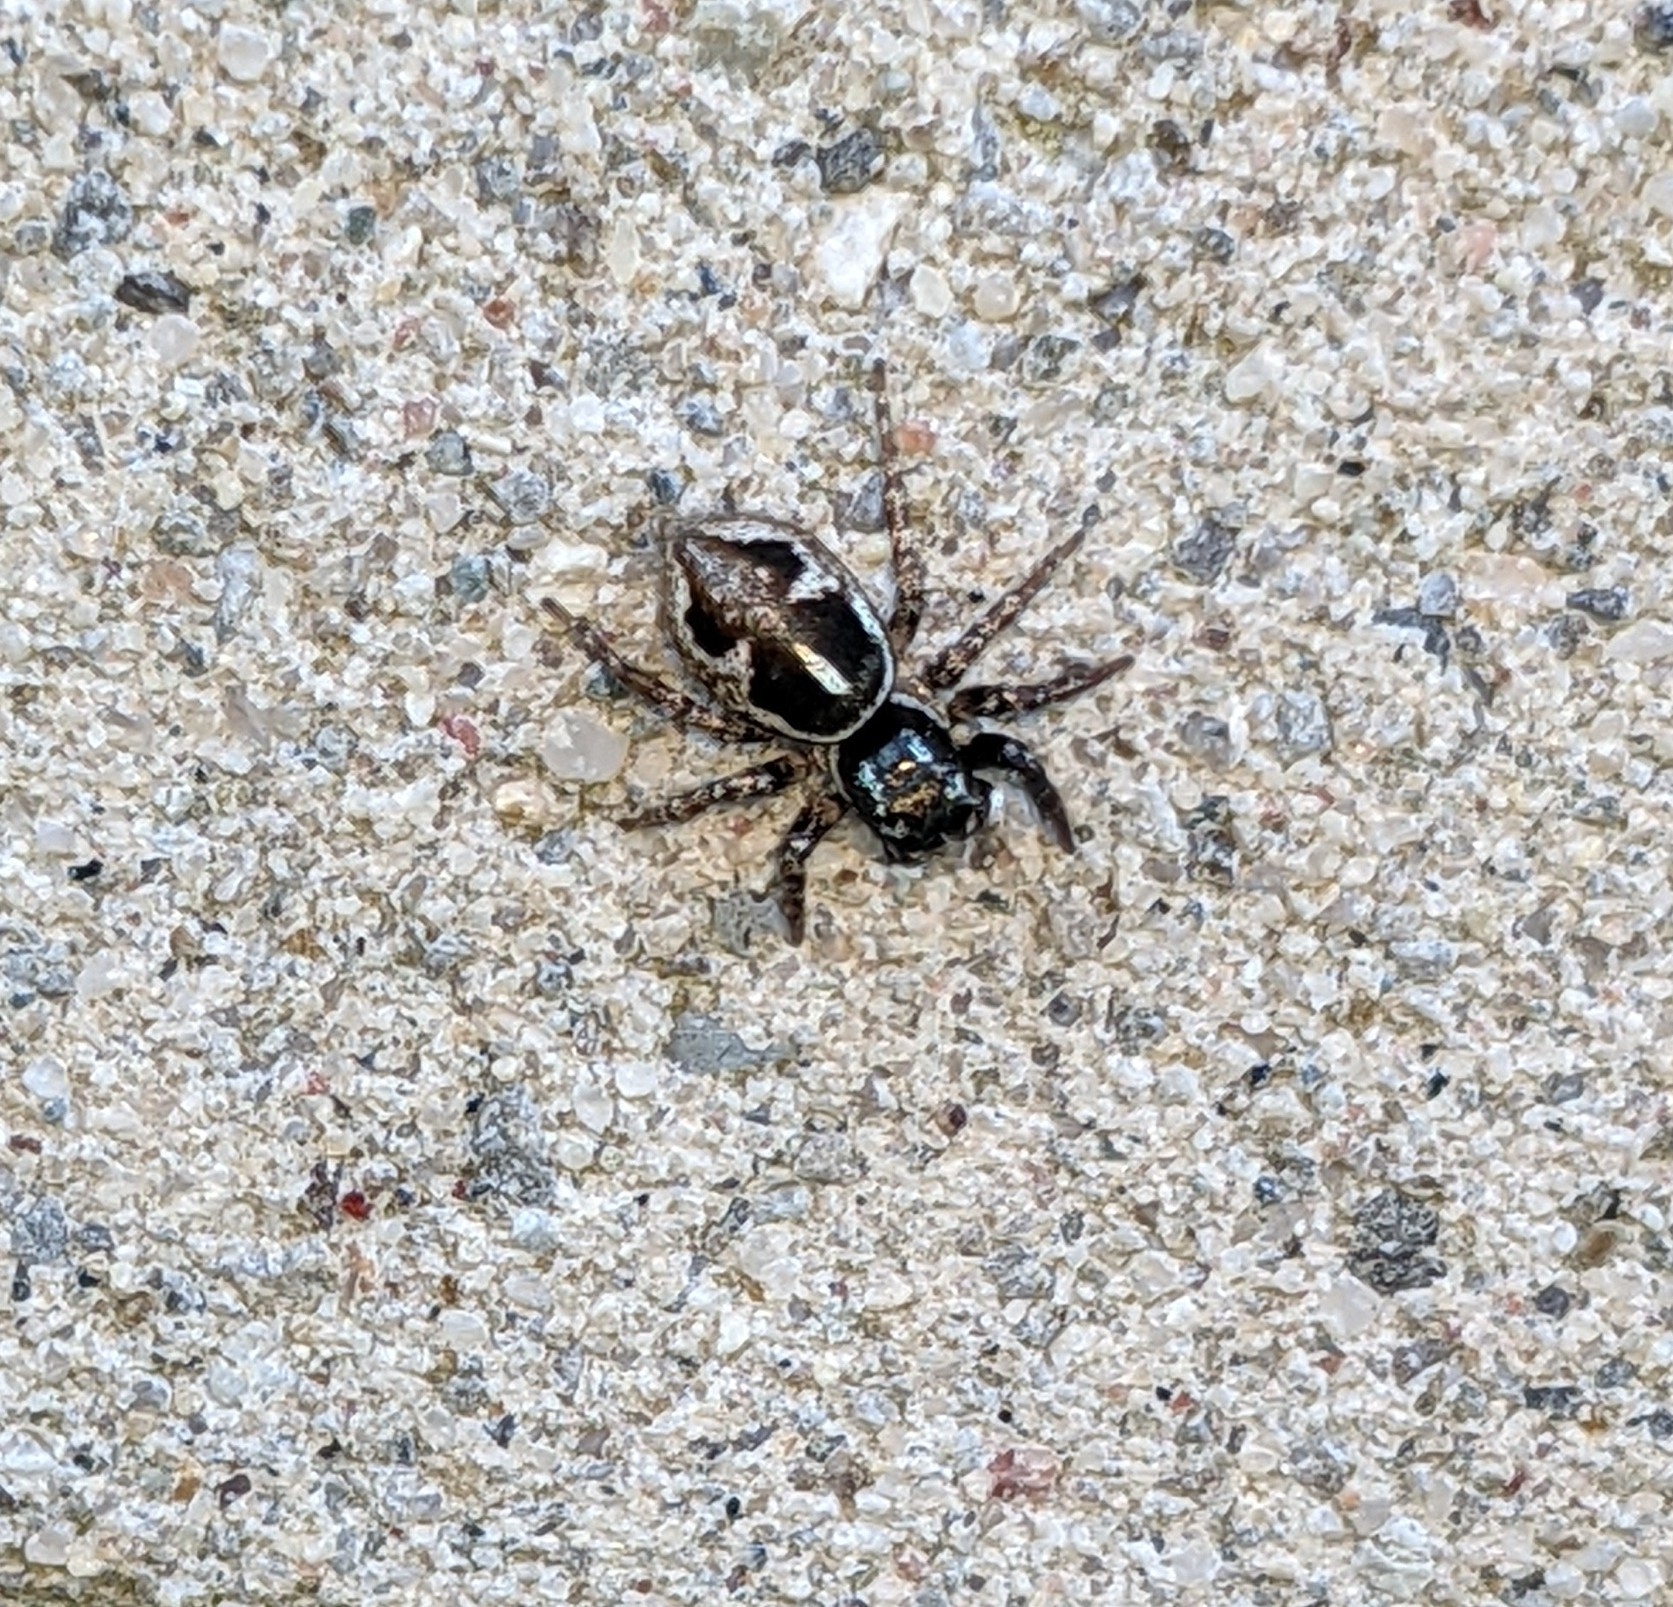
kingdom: Animalia
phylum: Arthropoda
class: Arachnida
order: Araneae
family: Salticidae
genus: Anasaitis
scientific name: Anasaitis canosa
